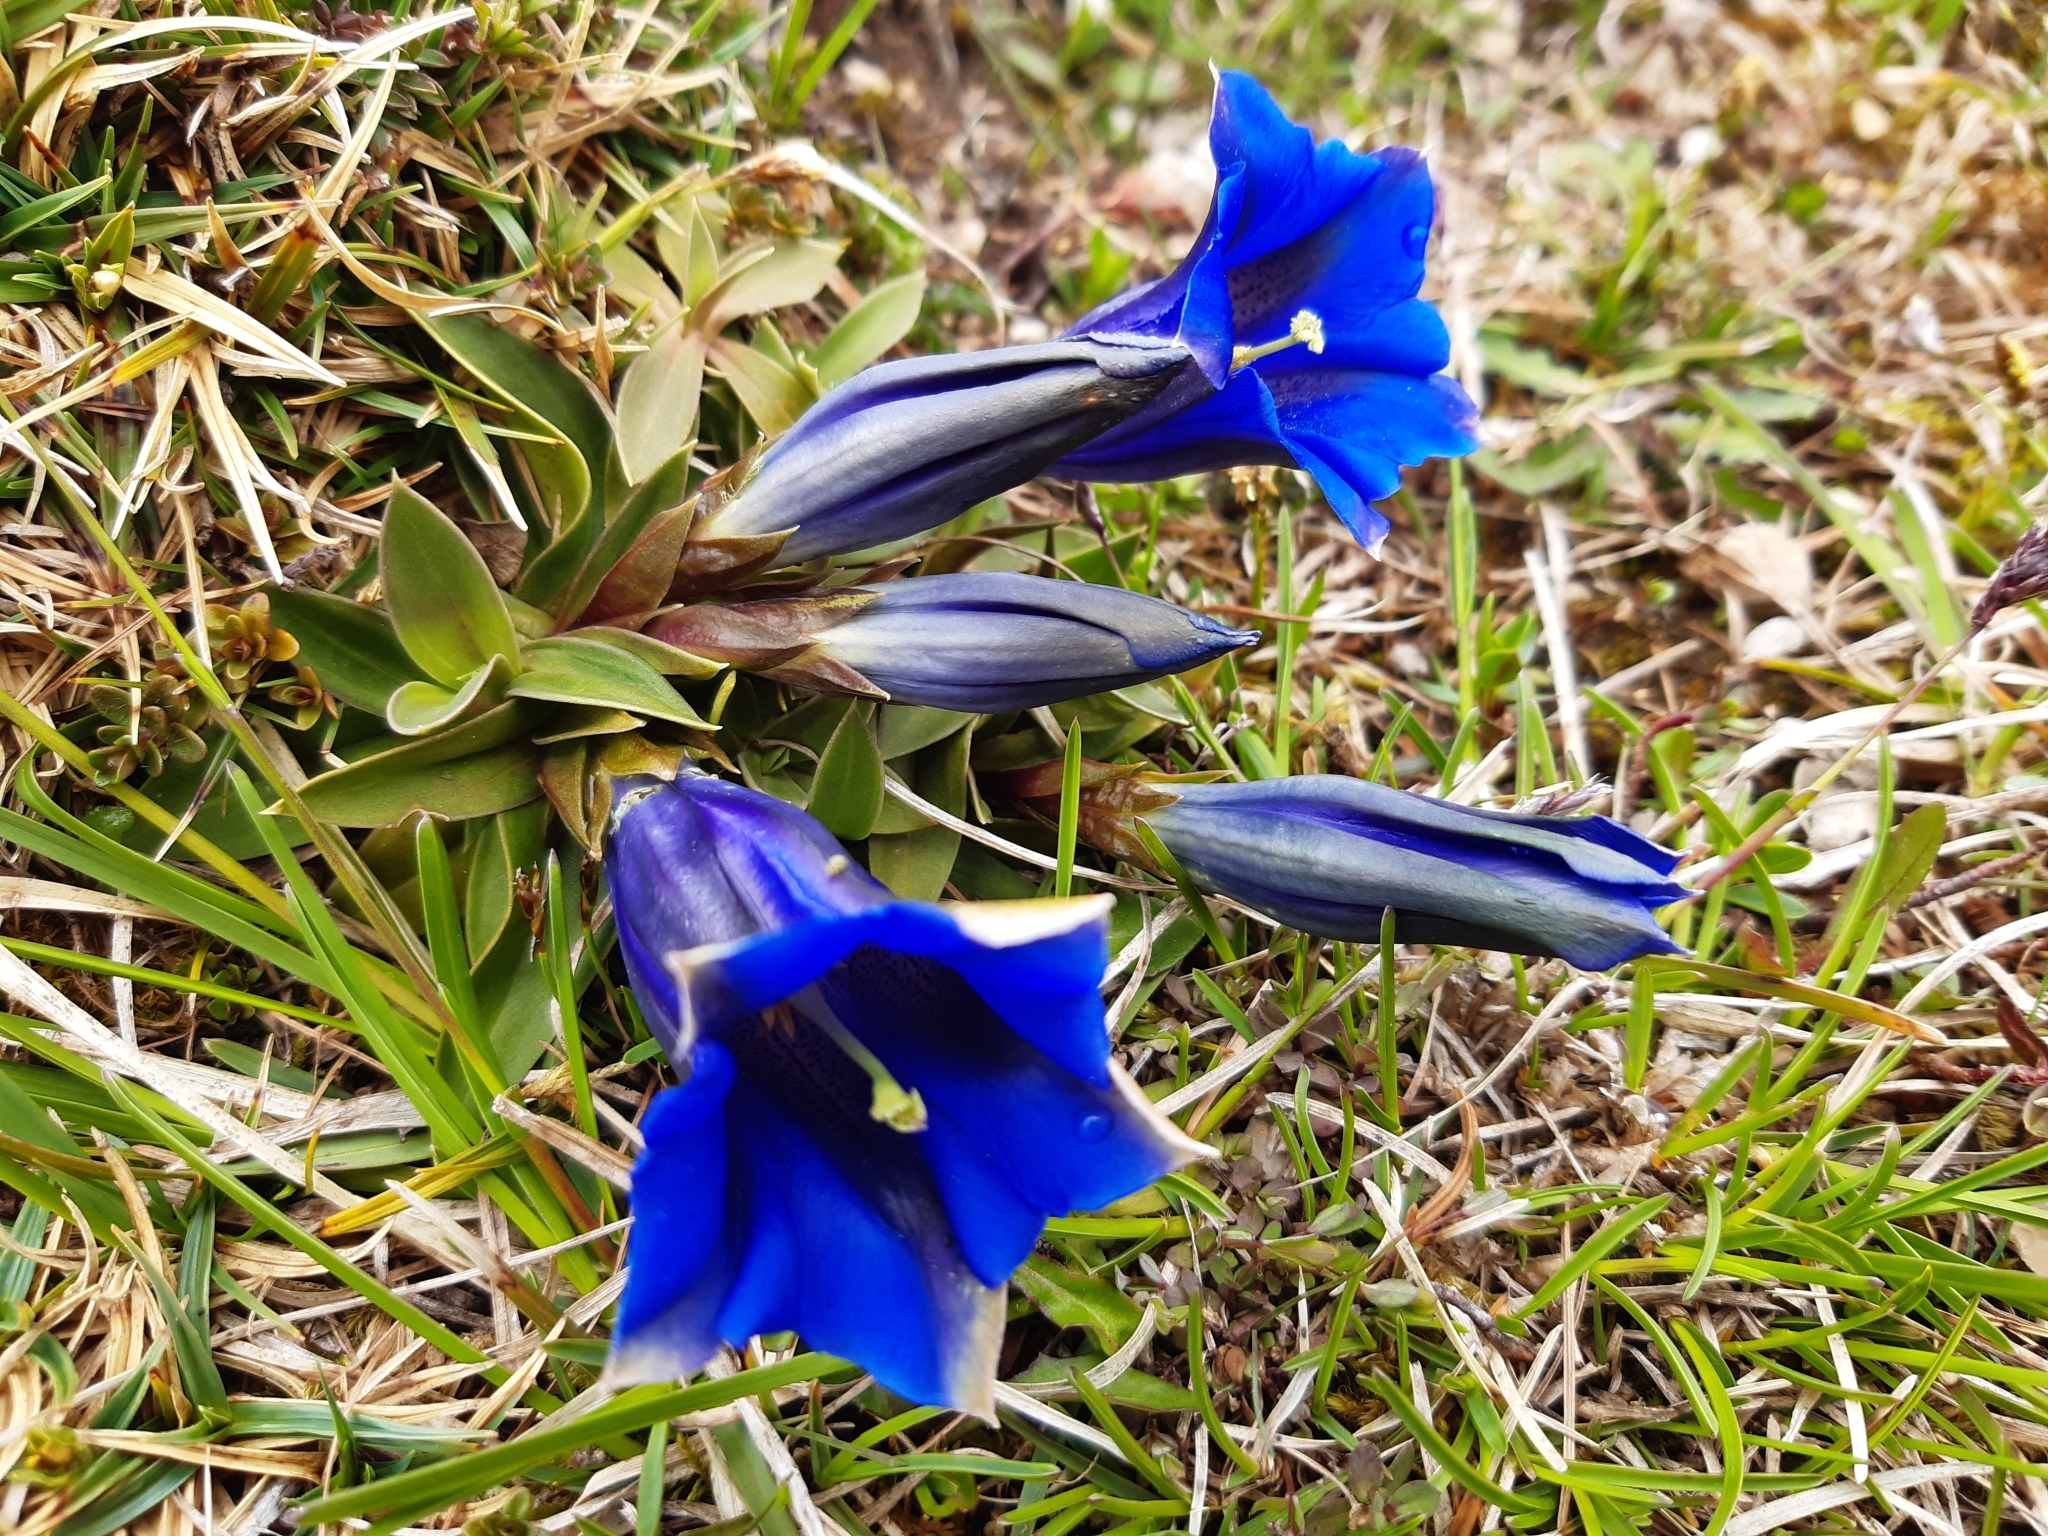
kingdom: Plantae
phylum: Tracheophyta
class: Magnoliopsida
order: Gentianales
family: Gentianaceae
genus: Gentiana
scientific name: Gentiana clusii
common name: Trumpet gentian
